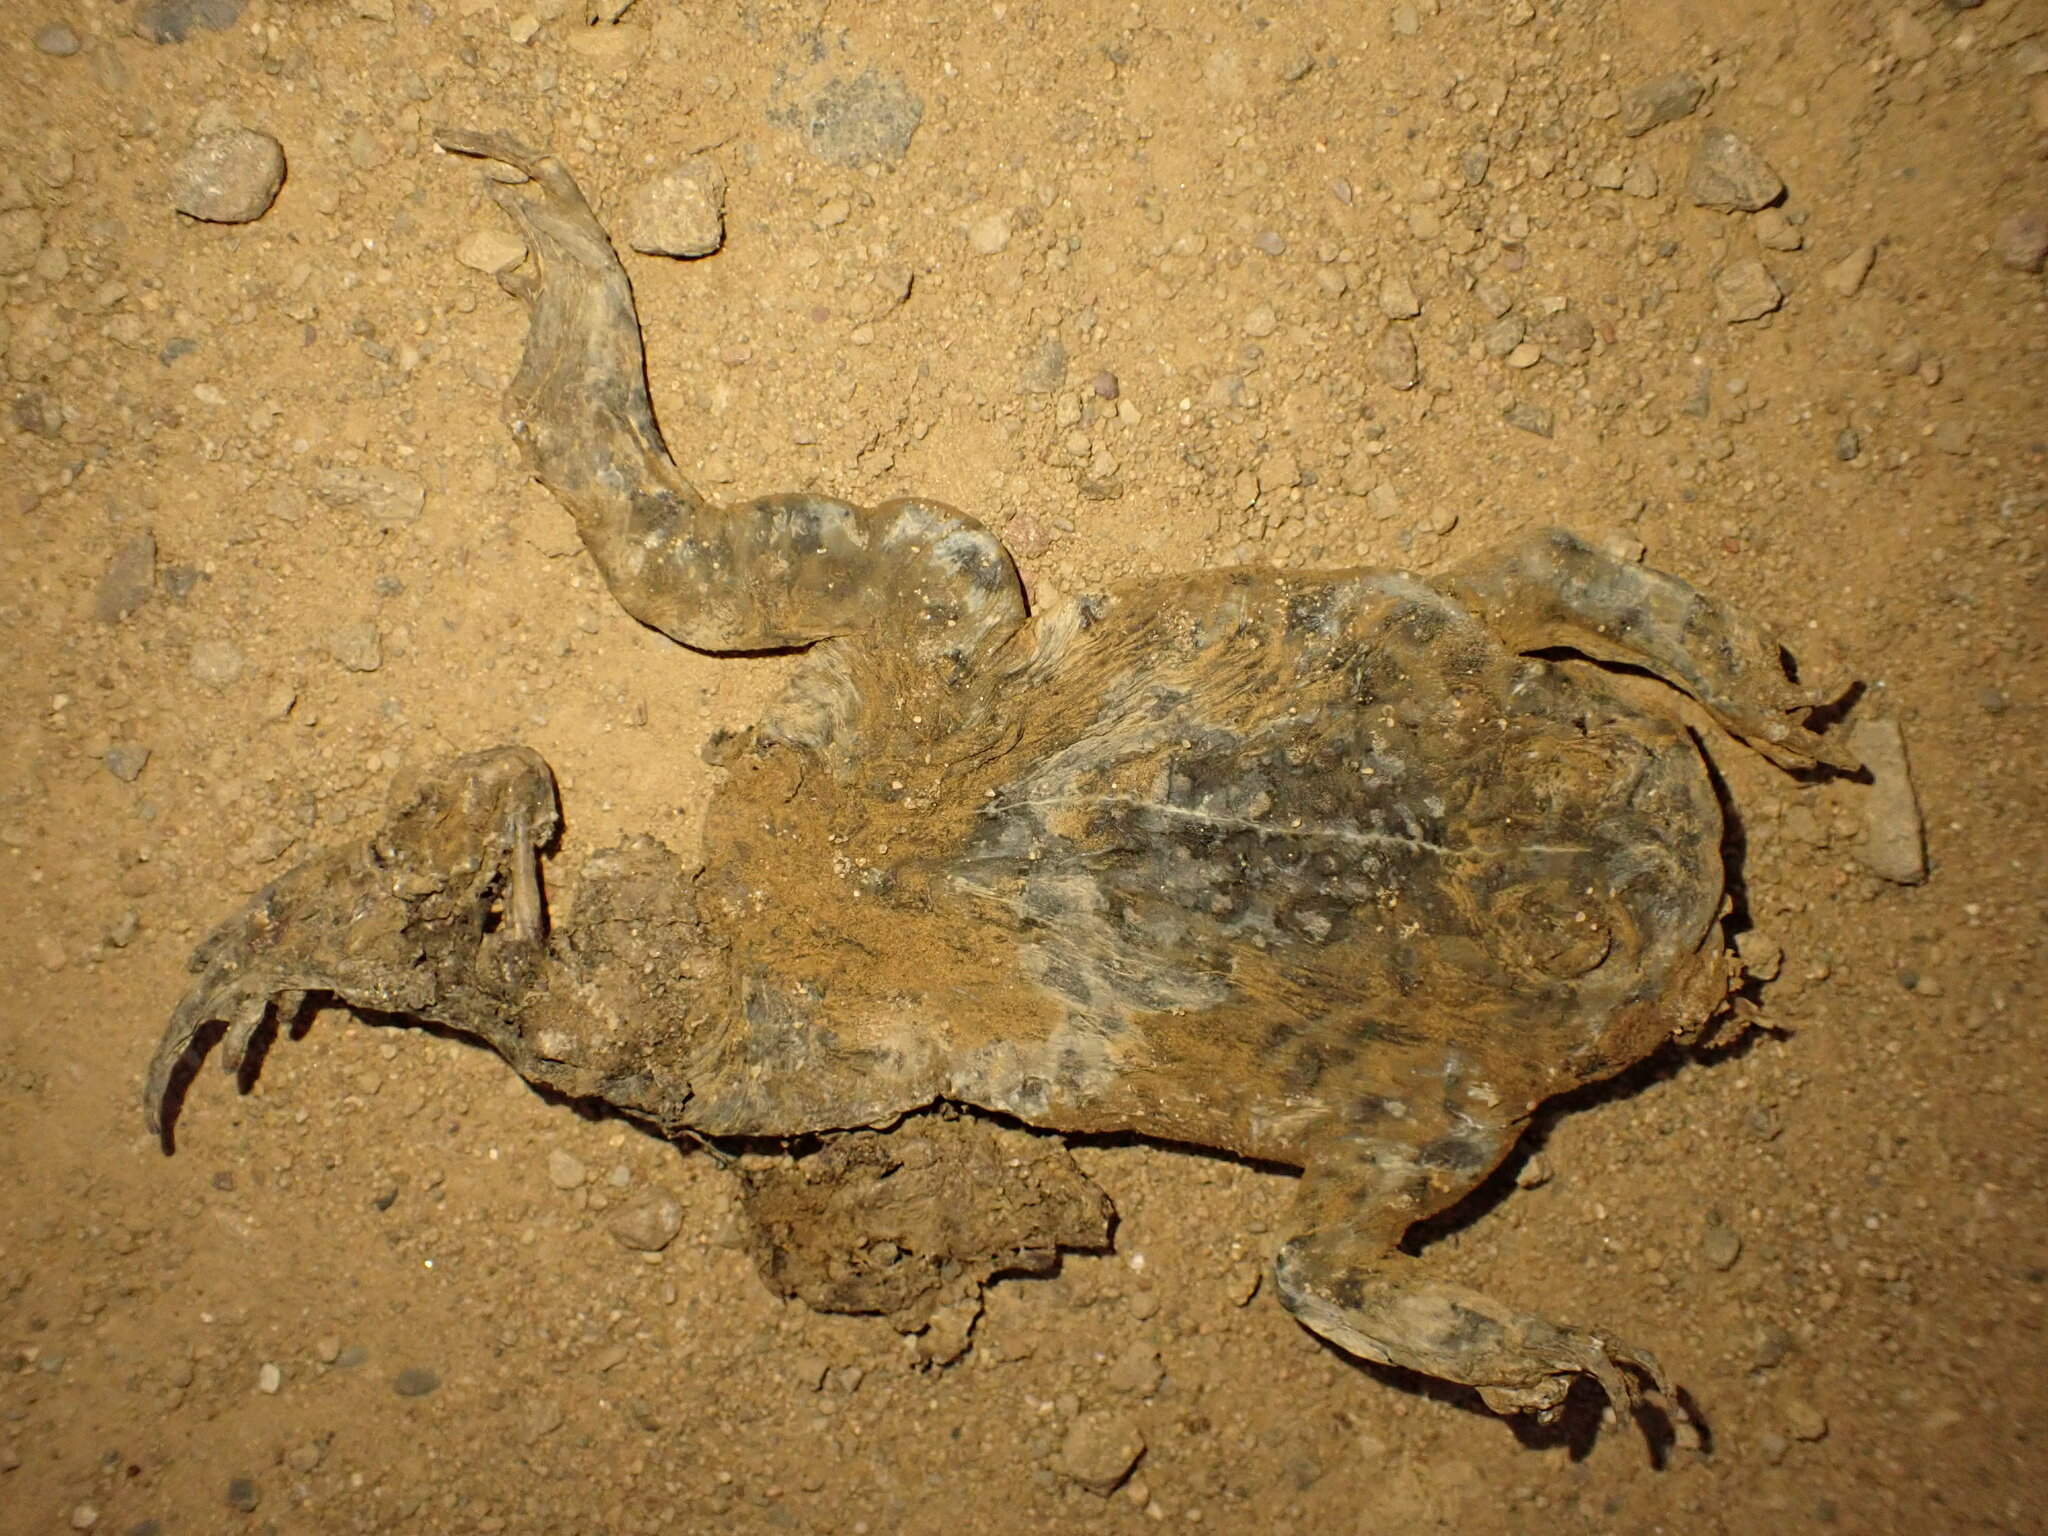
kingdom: Animalia
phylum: Chordata
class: Amphibia
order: Anura
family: Bufonidae
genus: Anaxyrus
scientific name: Anaxyrus boreas
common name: Western toad
